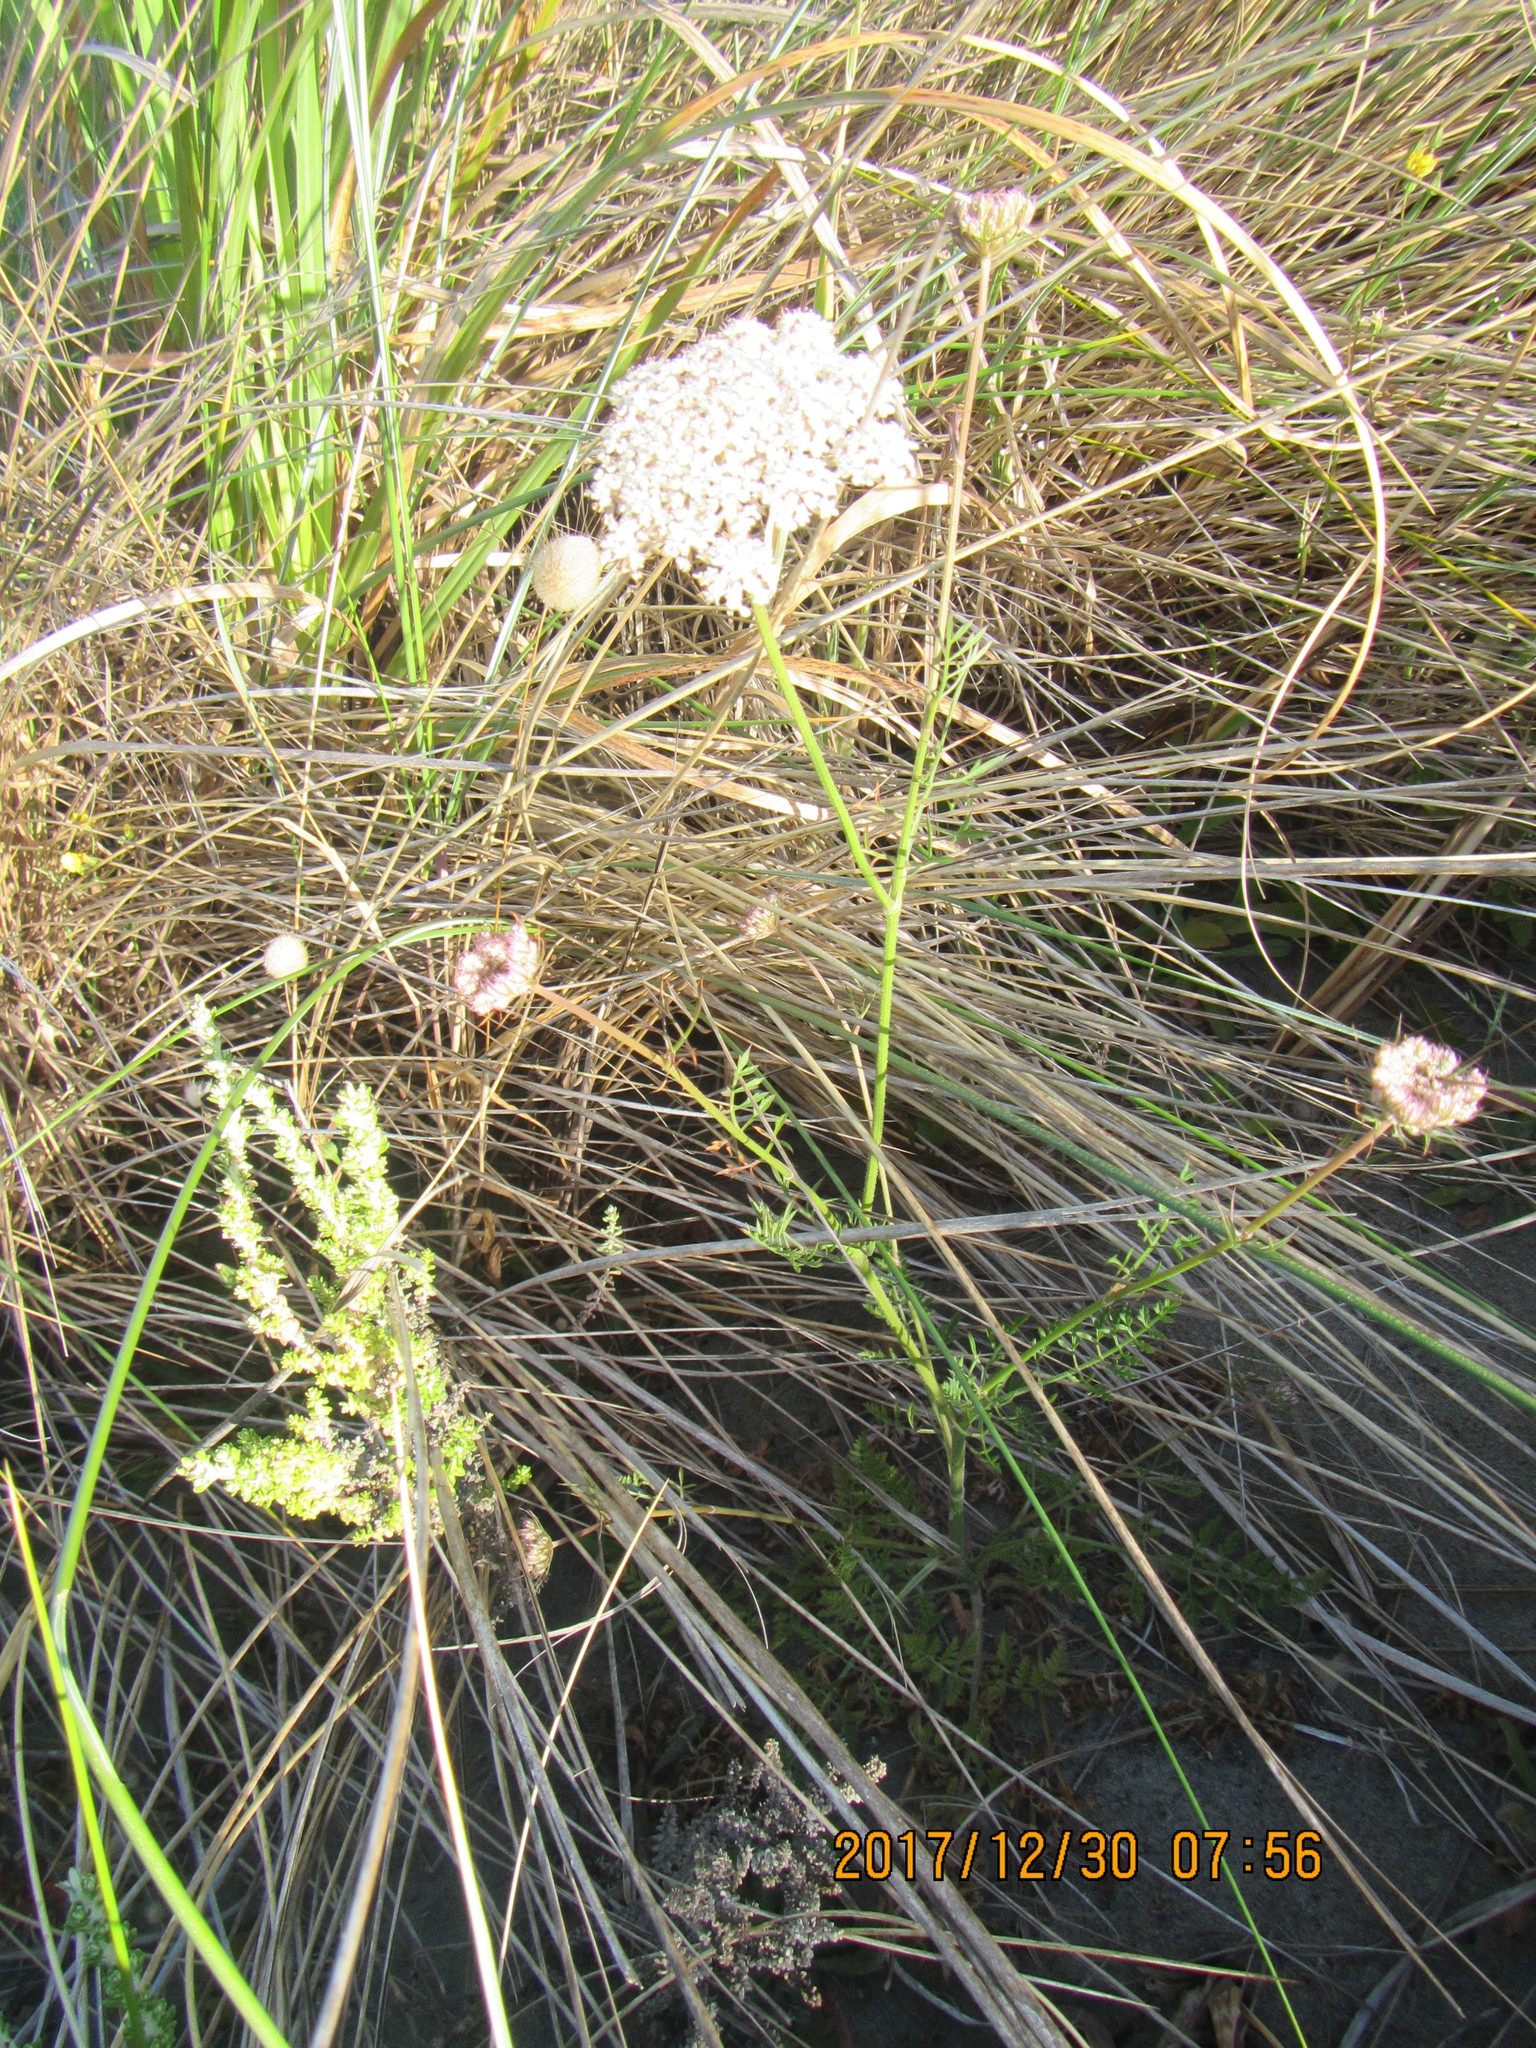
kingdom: Plantae
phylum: Tracheophyta
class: Magnoliopsida
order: Apiales
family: Apiaceae
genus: Daucus
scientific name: Daucus carota
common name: Wild carrot
